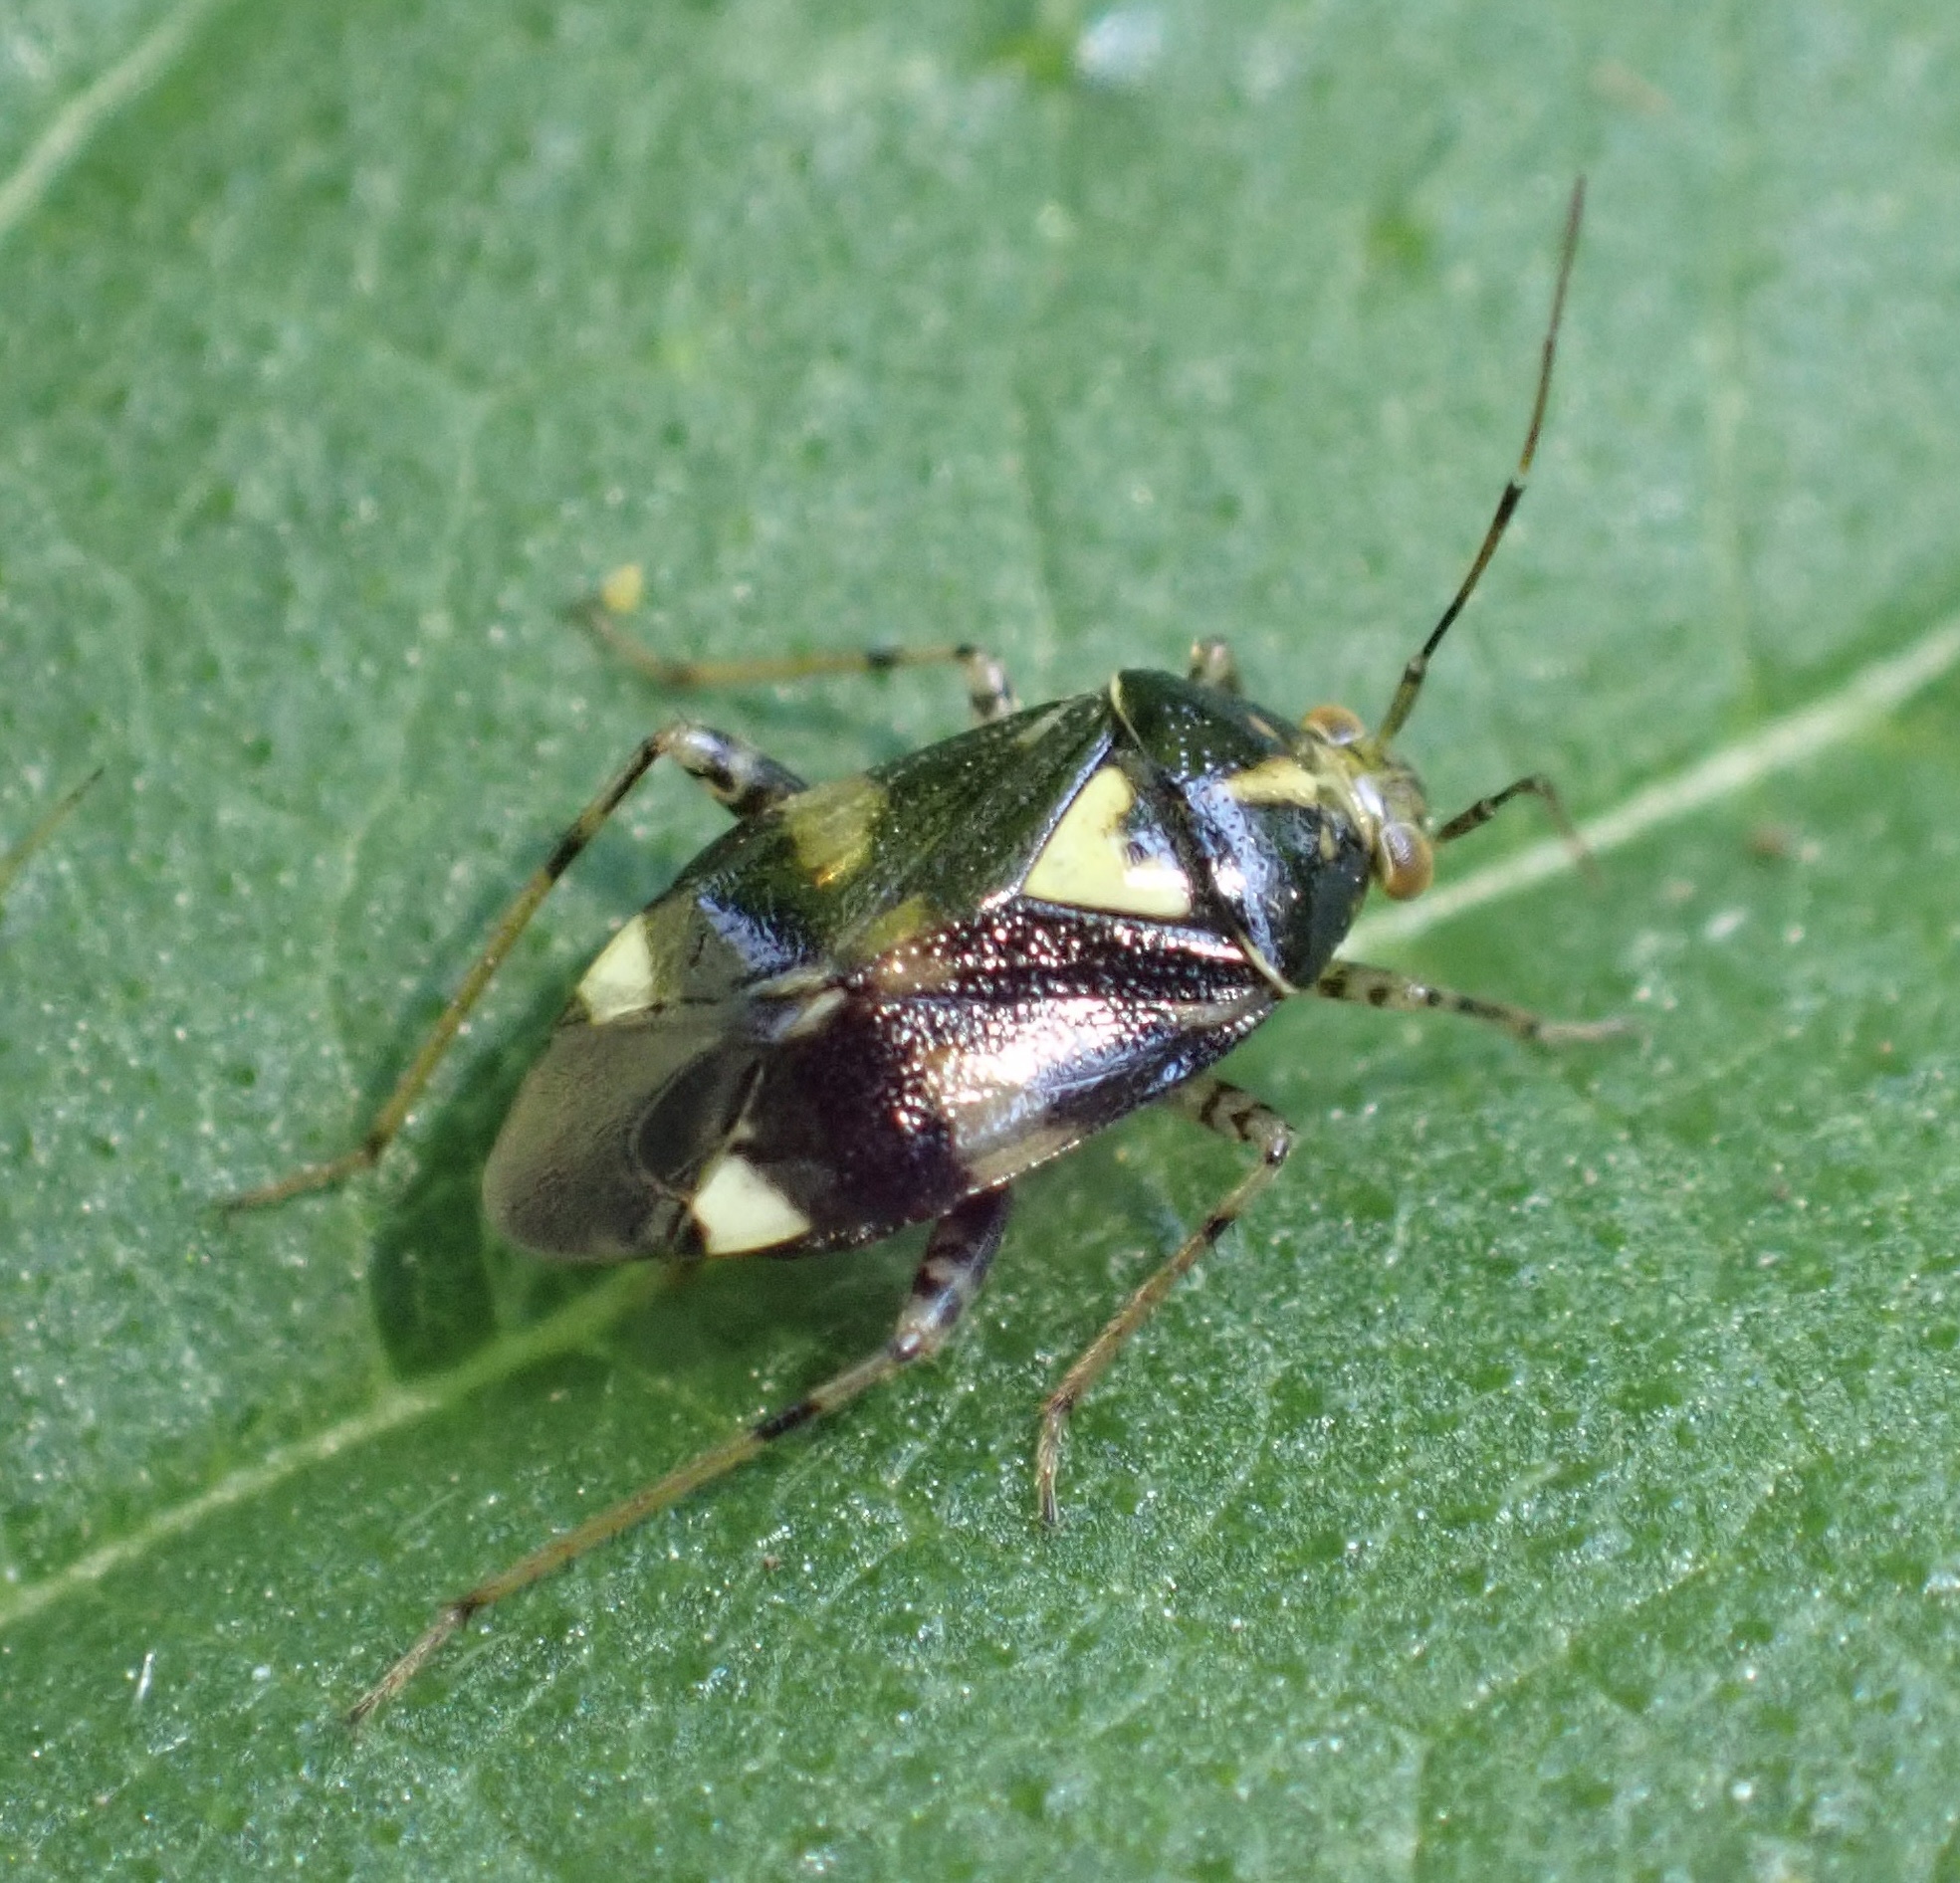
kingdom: Animalia
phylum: Arthropoda
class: Insecta
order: Hemiptera
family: Miridae
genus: Liocoris
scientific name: Liocoris tripustulatus
